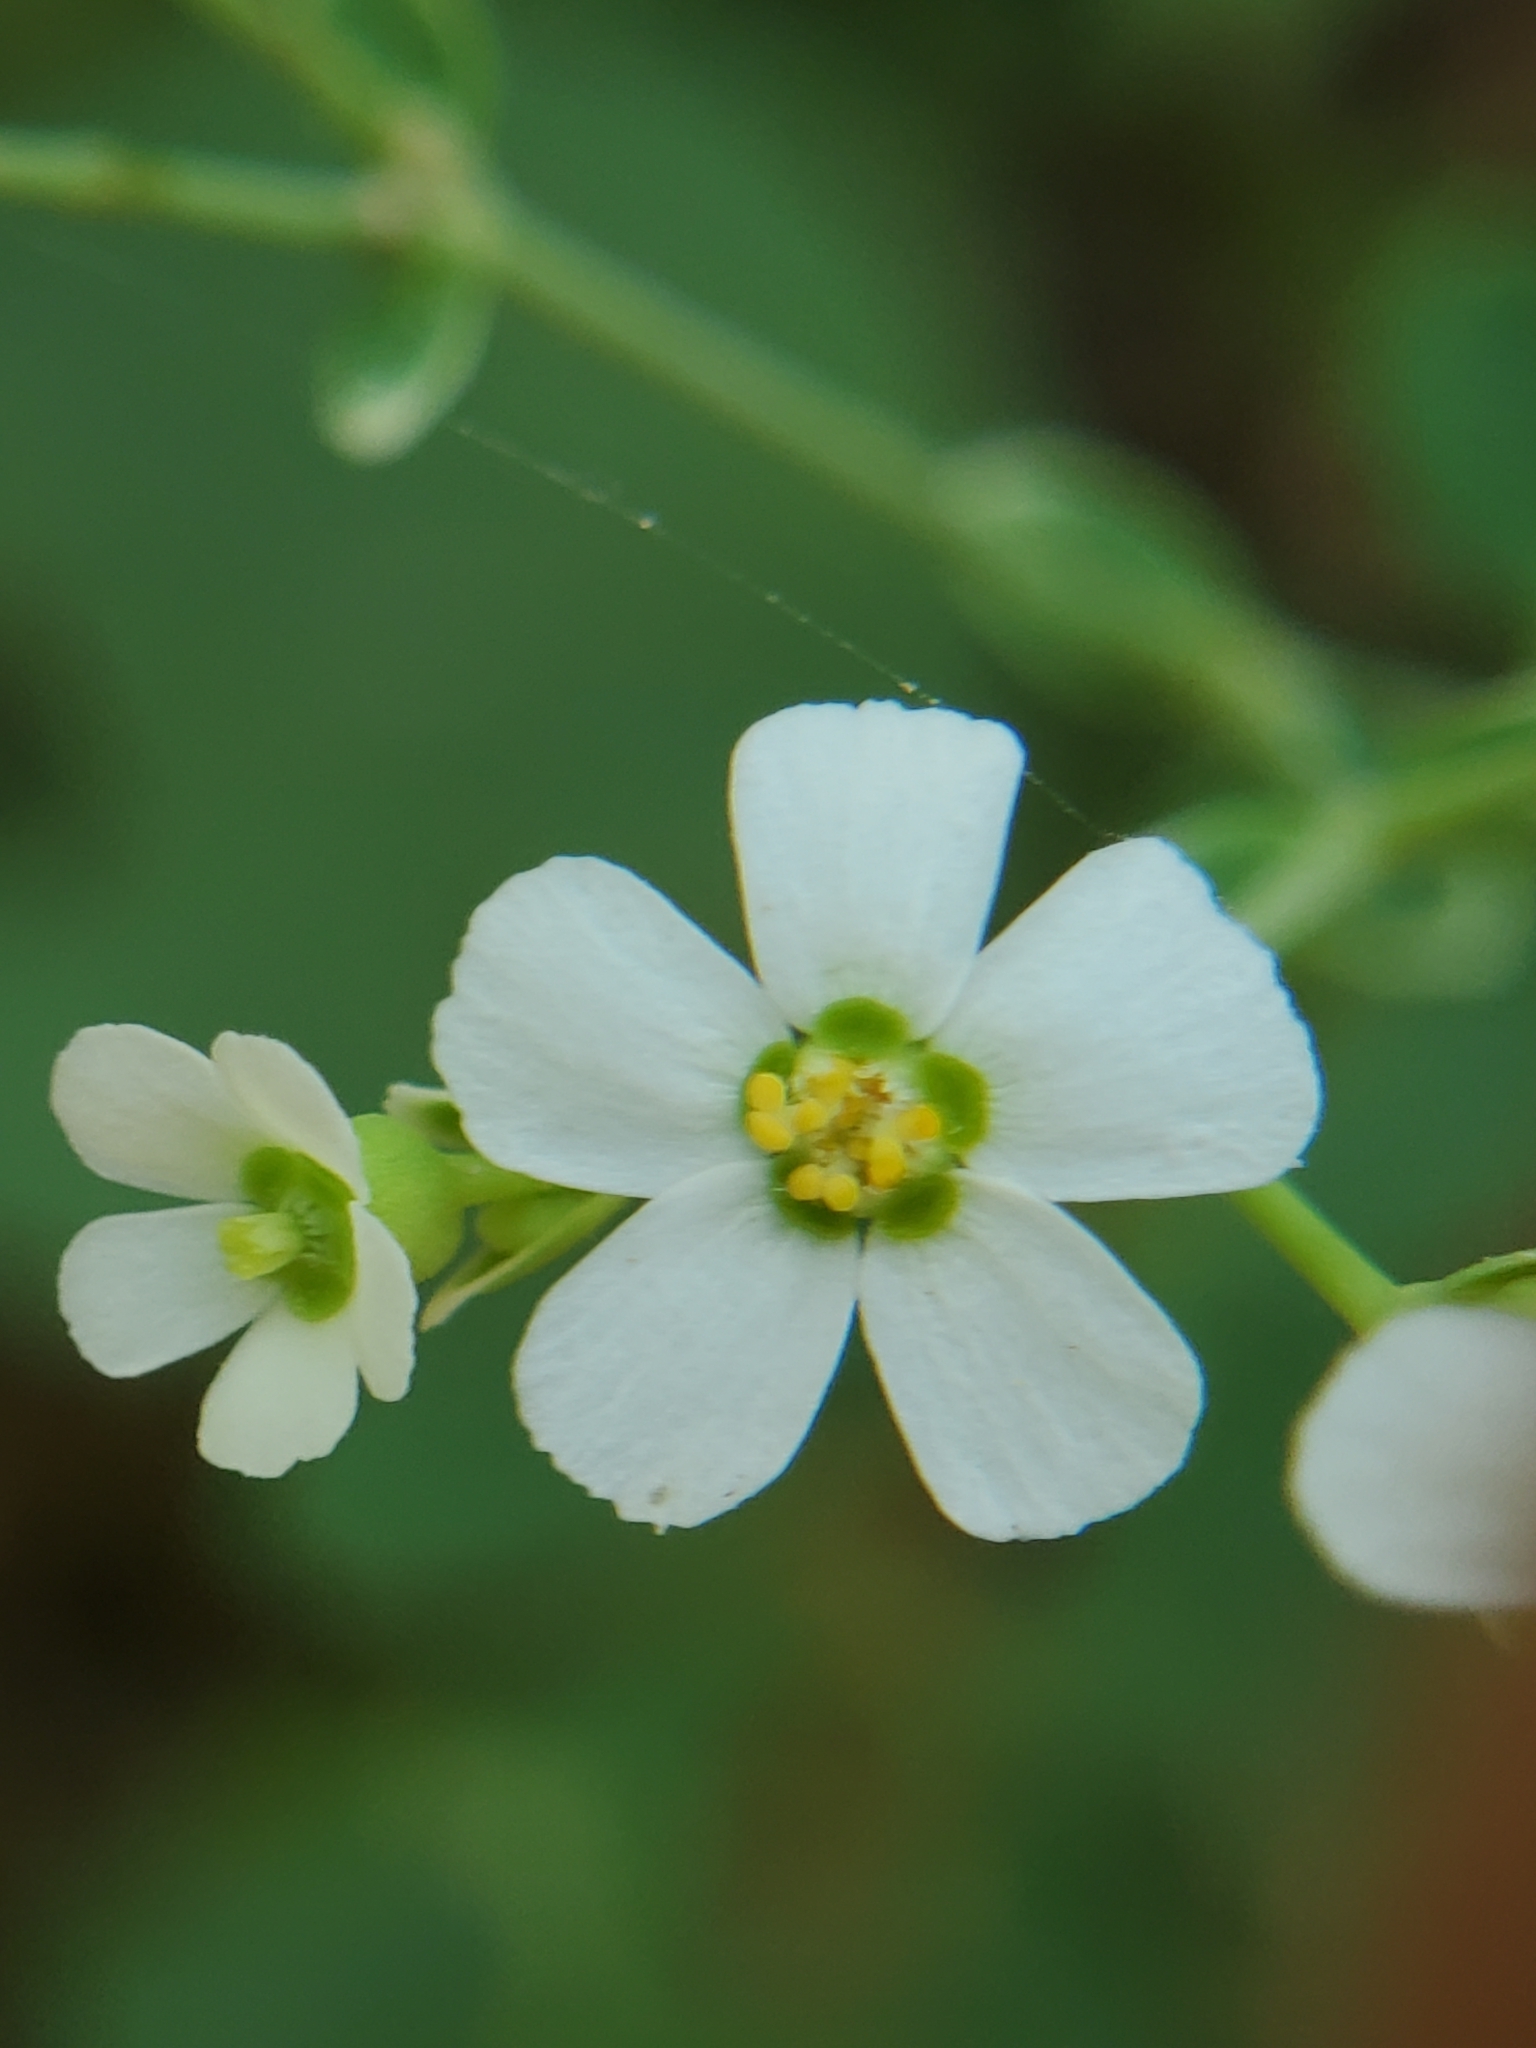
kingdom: Plantae
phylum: Tracheophyta
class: Magnoliopsida
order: Malpighiales
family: Euphorbiaceae
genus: Euphorbia
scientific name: Euphorbia corollata
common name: Flowering spurge
